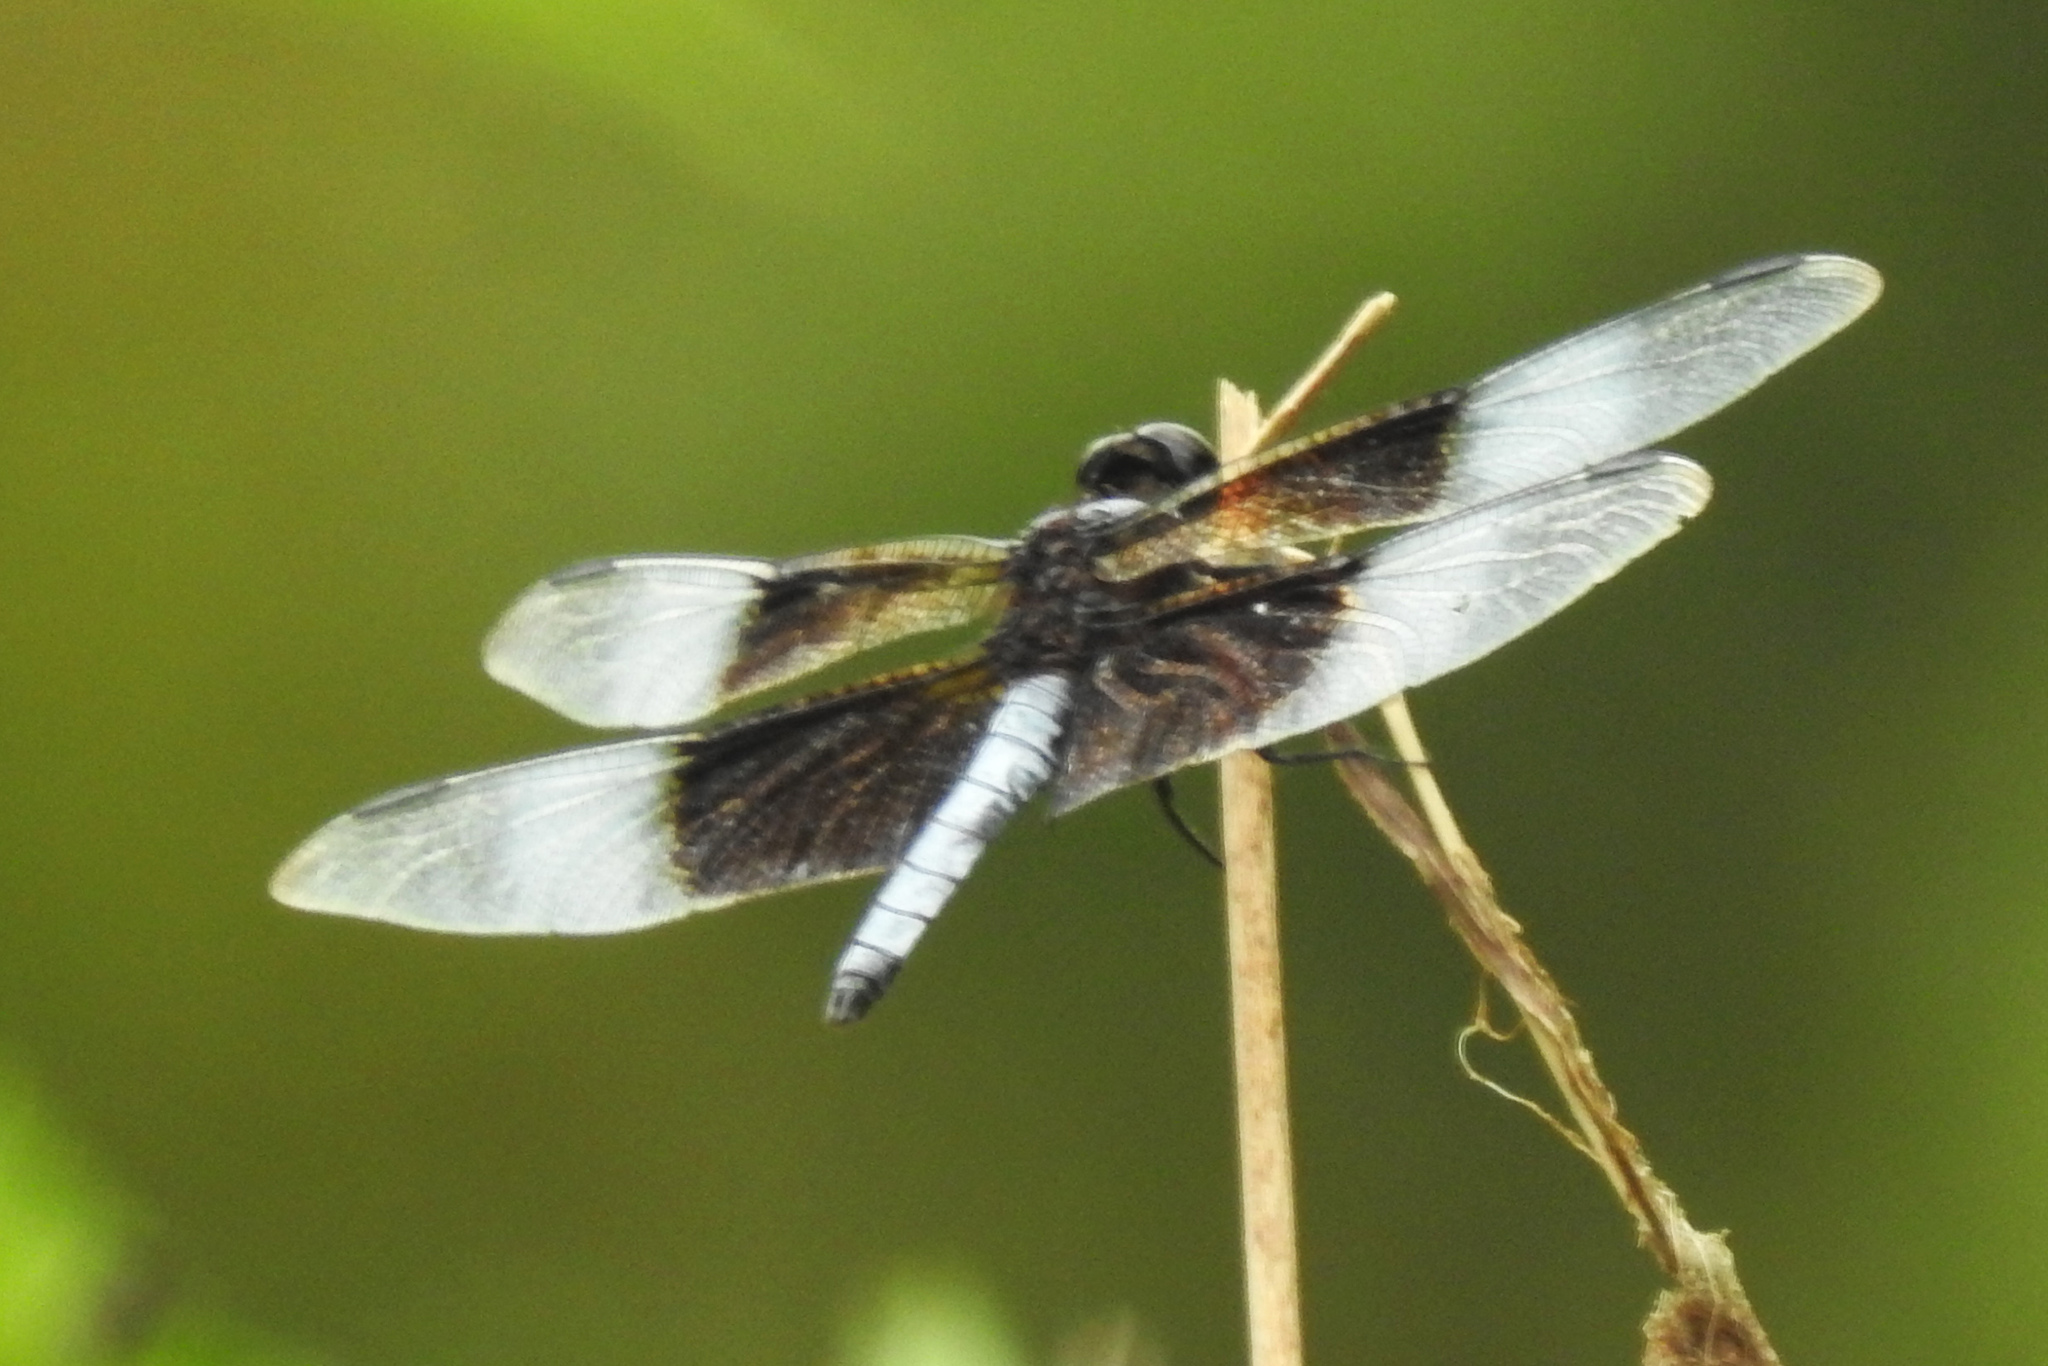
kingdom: Animalia
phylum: Arthropoda
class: Insecta
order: Odonata
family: Libellulidae
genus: Libellula
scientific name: Libellula luctuosa
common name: Widow skimmer
